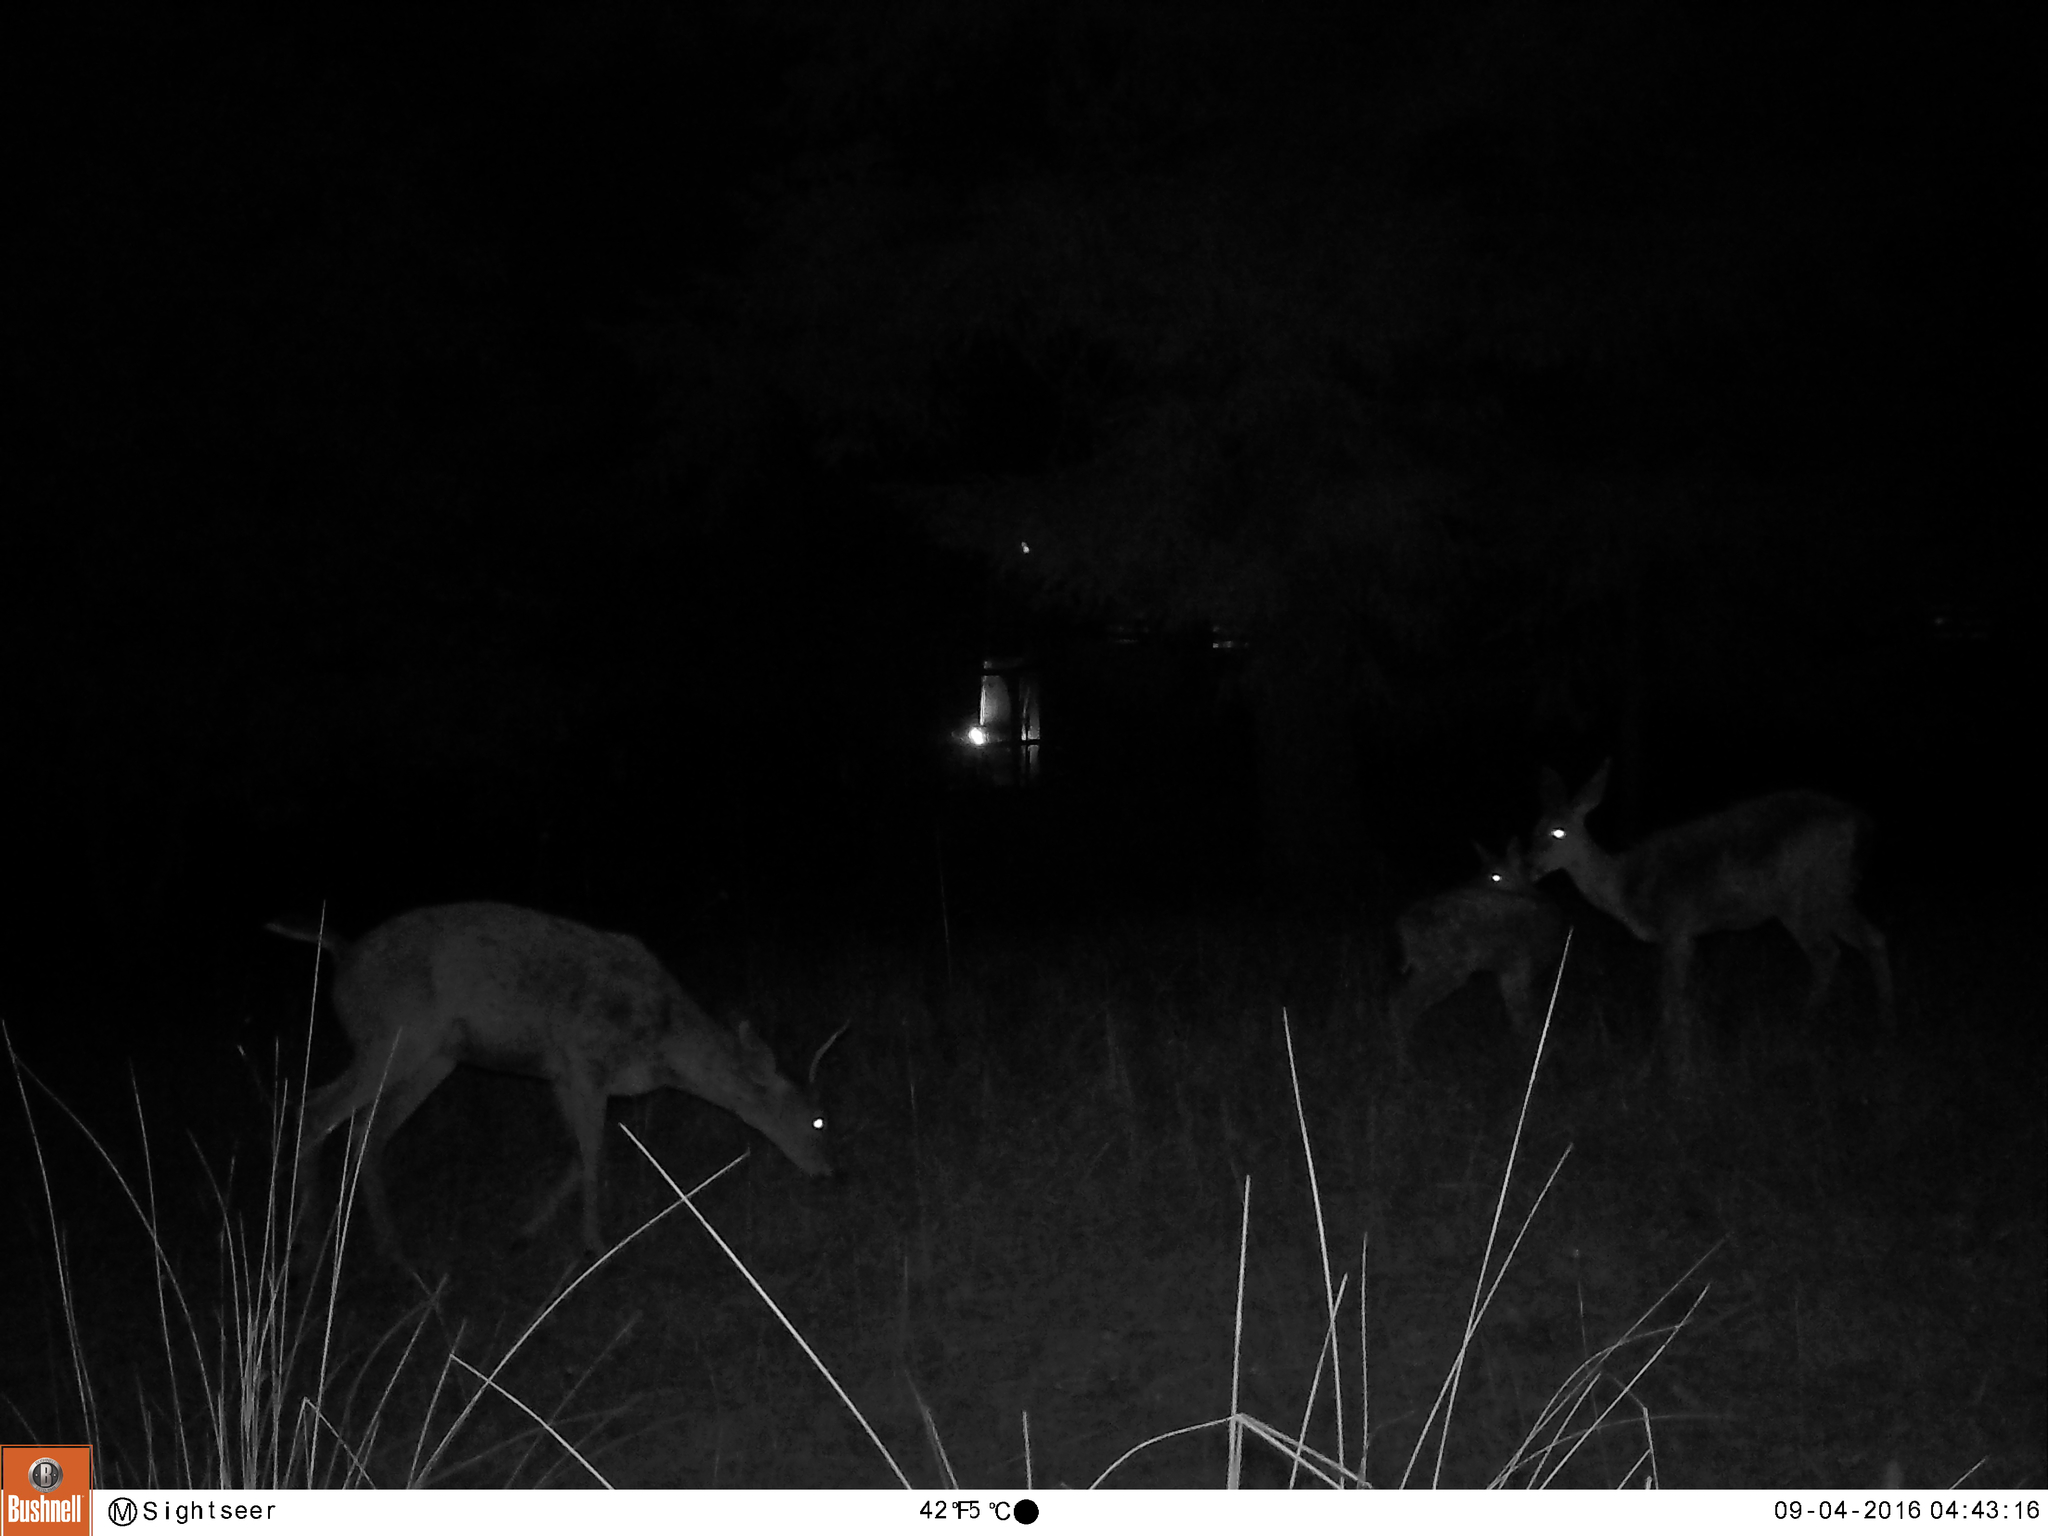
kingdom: Animalia
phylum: Chordata
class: Mammalia
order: Artiodactyla
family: Cervidae
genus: Odocoileus
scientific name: Odocoileus hemionus
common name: Mule deer
